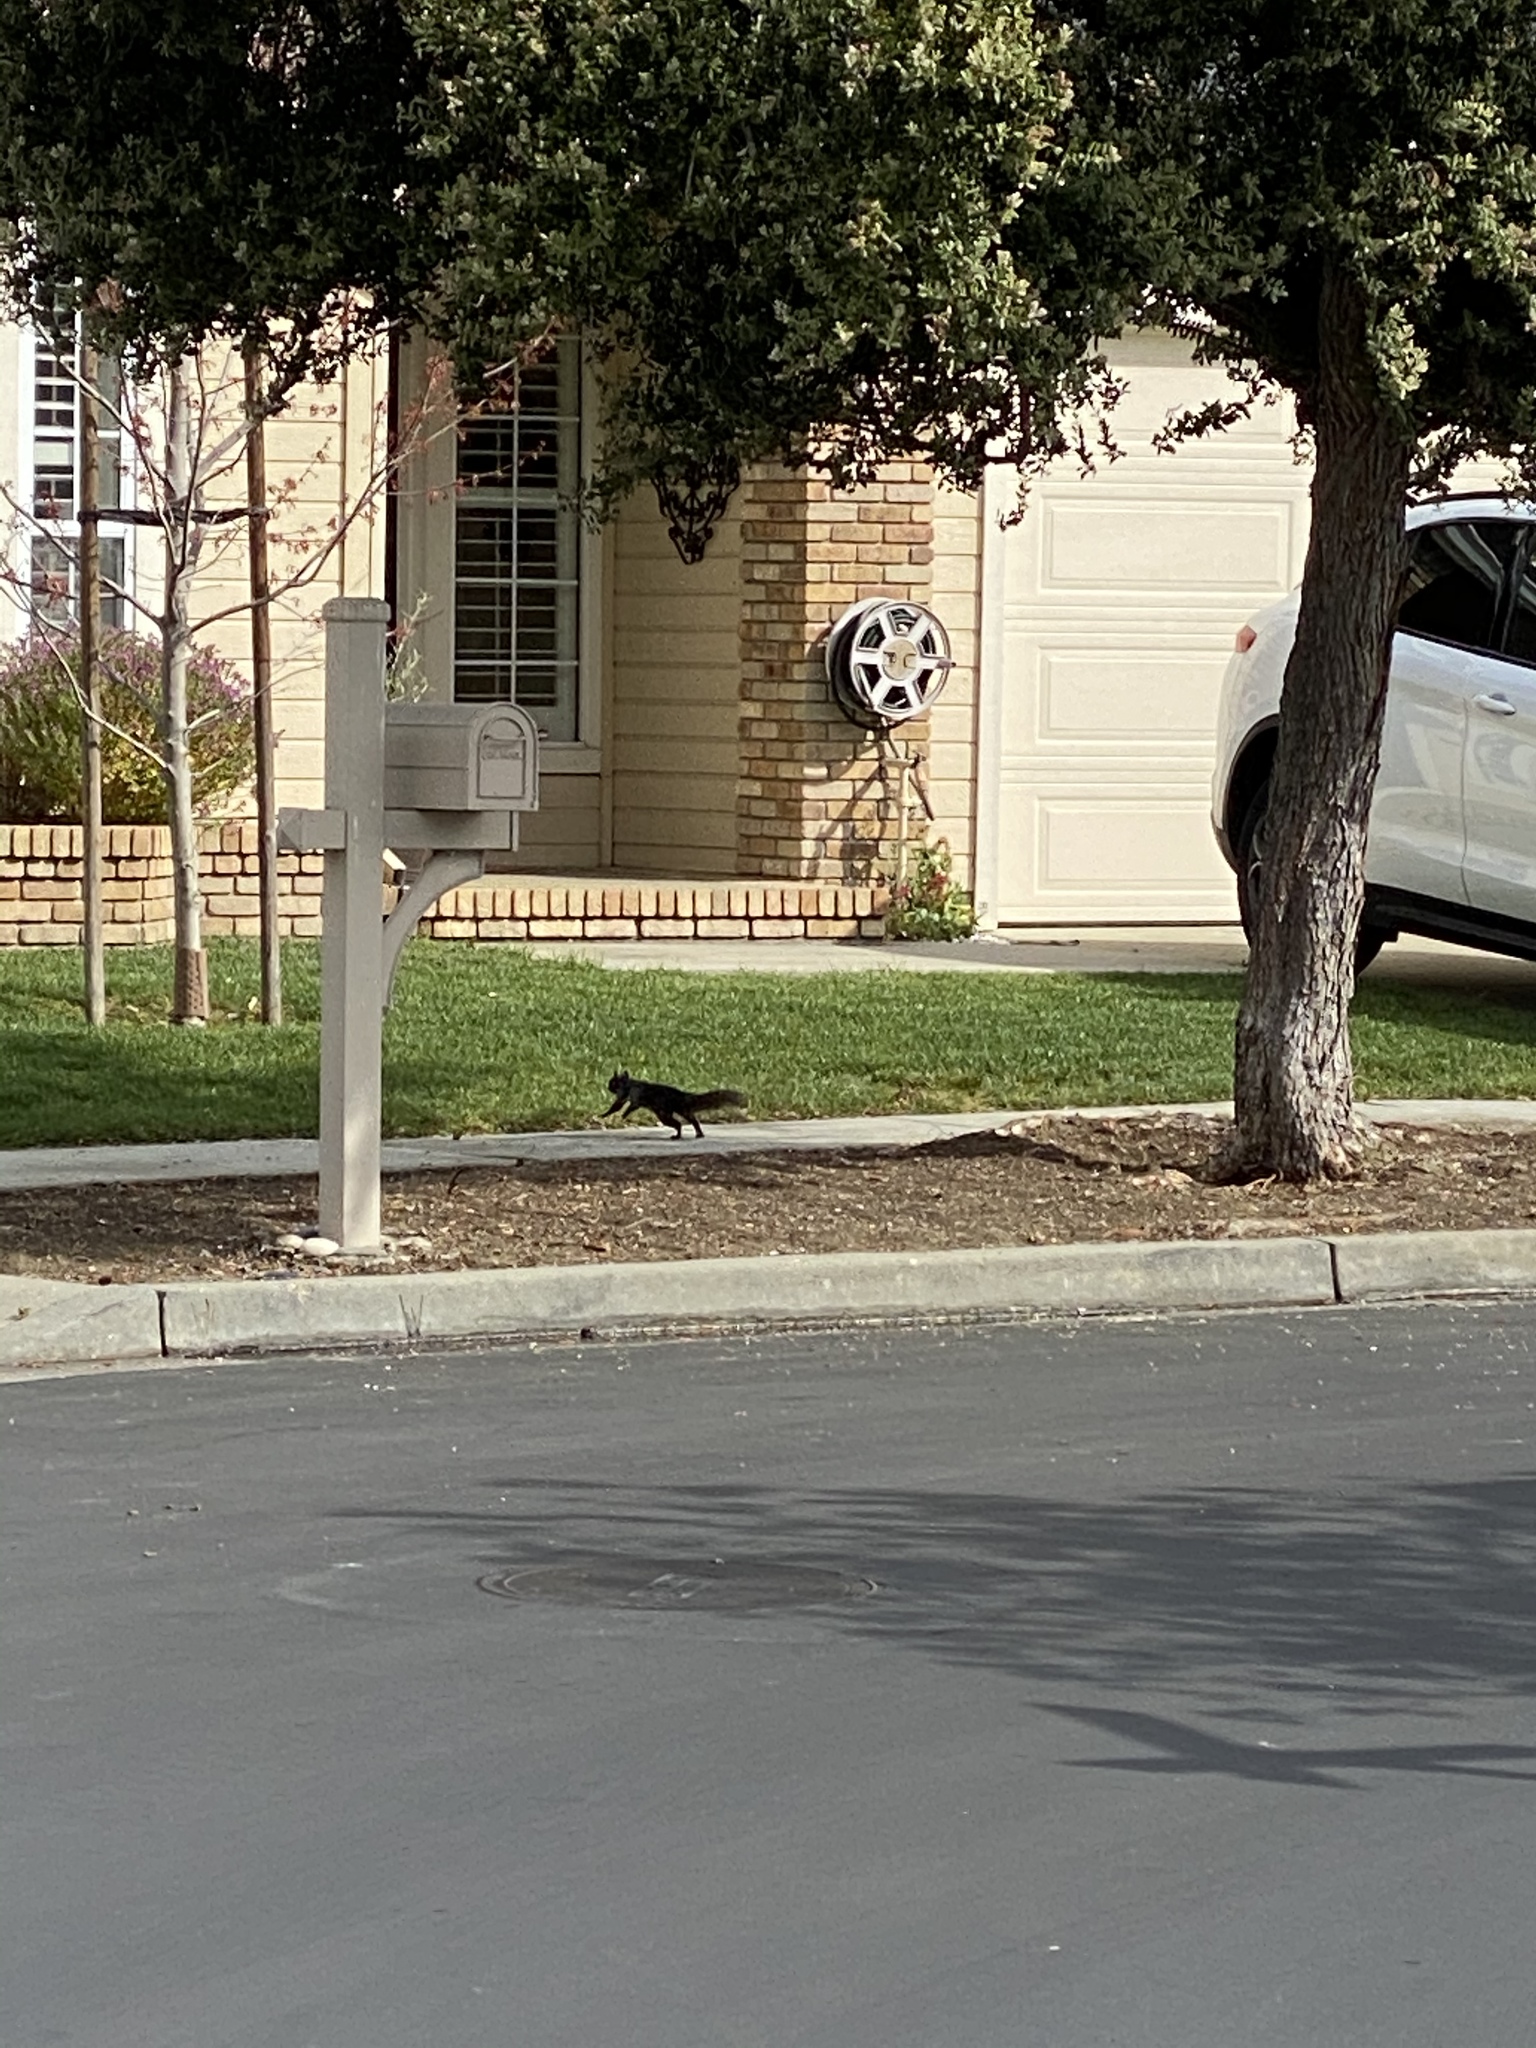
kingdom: Animalia
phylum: Chordata
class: Mammalia
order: Rodentia
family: Sciuridae
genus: Sciurus
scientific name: Sciurus carolinensis
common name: Eastern gray squirrel
